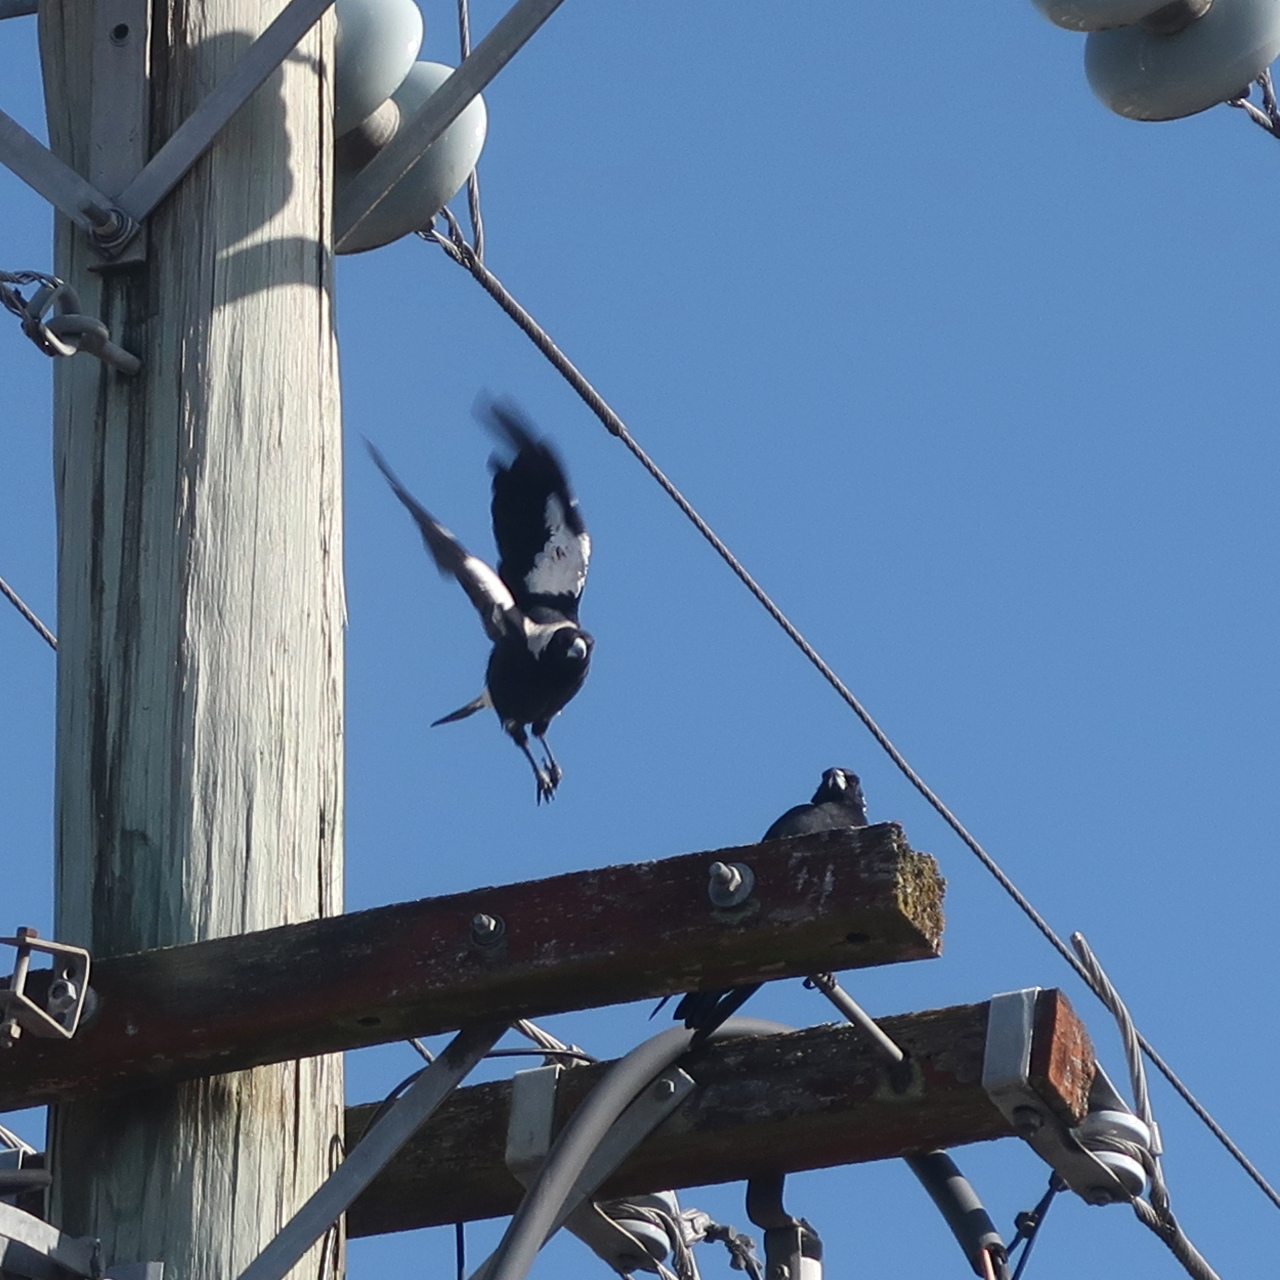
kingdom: Animalia
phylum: Chordata
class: Aves
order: Passeriformes
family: Cracticidae
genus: Gymnorhina
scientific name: Gymnorhina tibicen
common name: Australian magpie
